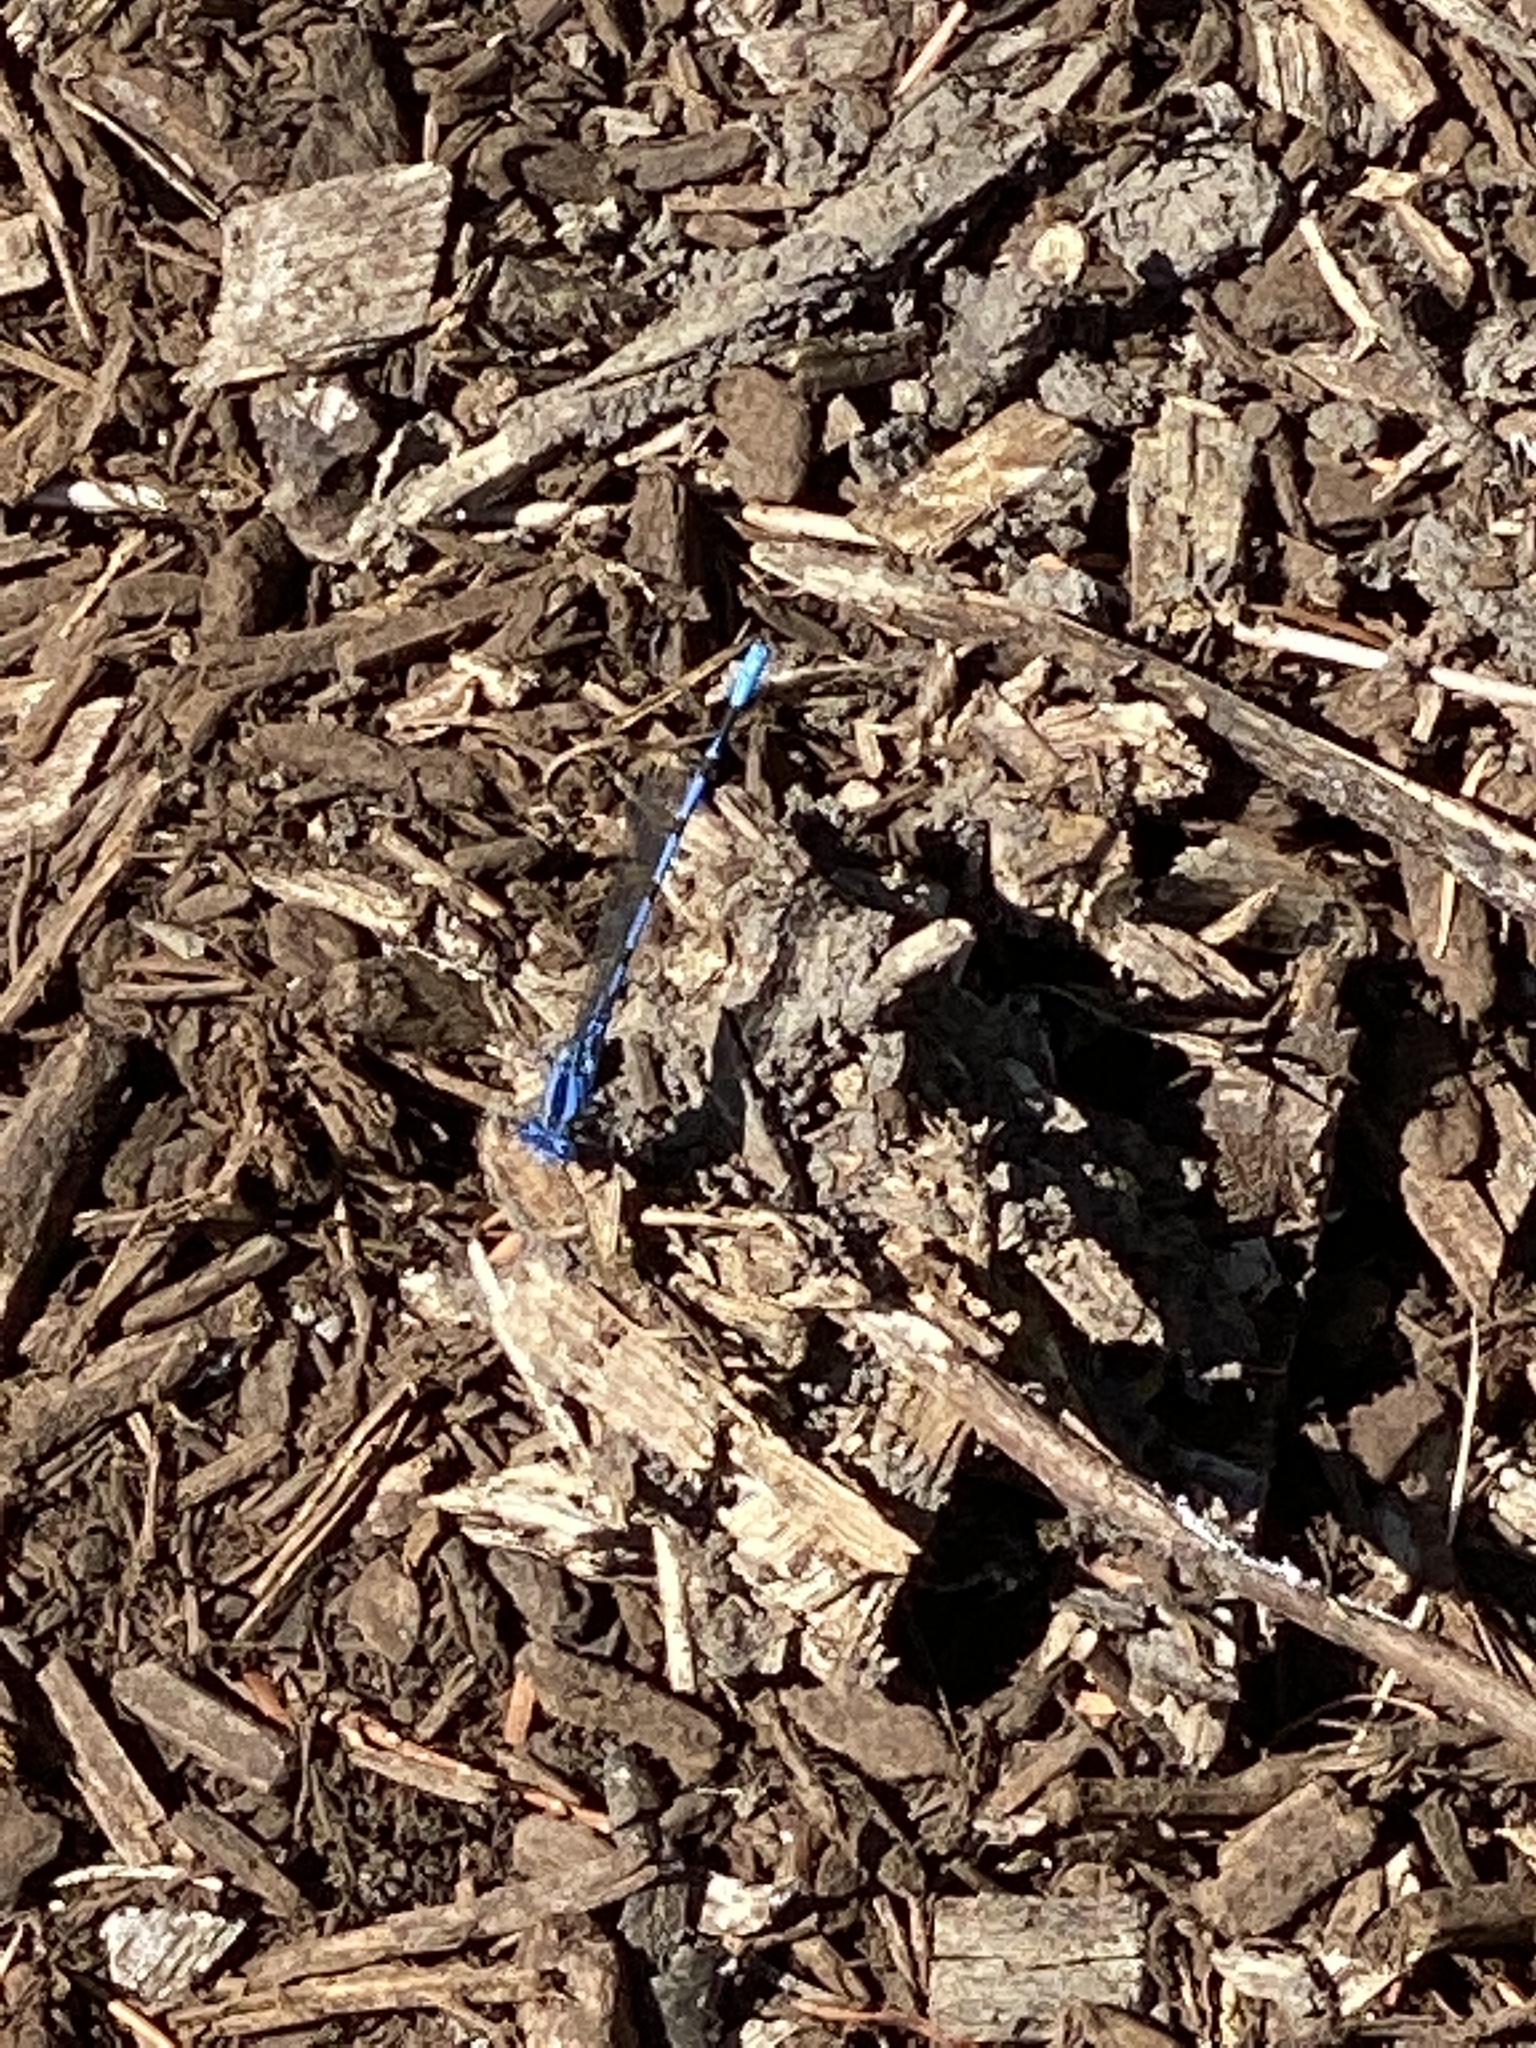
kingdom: Animalia
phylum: Arthropoda
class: Insecta
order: Odonata
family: Coenagrionidae
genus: Argia
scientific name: Argia vivida
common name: Vivid dancer
